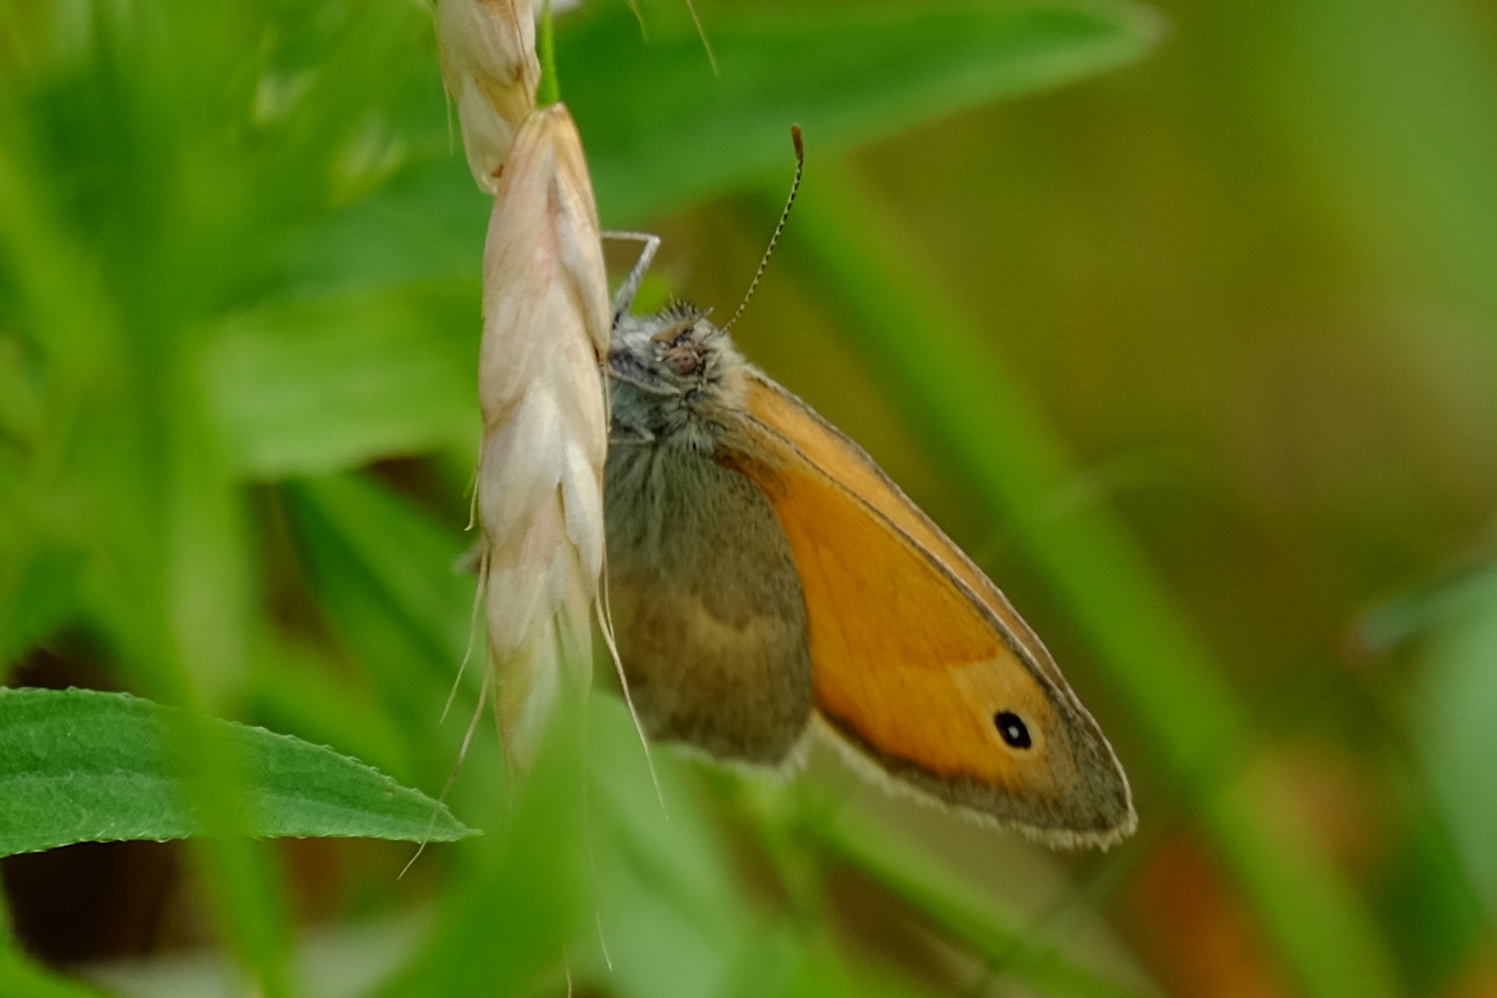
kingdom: Animalia
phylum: Arthropoda
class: Insecta
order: Lepidoptera
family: Nymphalidae
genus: Coenonympha
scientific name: Coenonympha pamphilus
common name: Small heath
